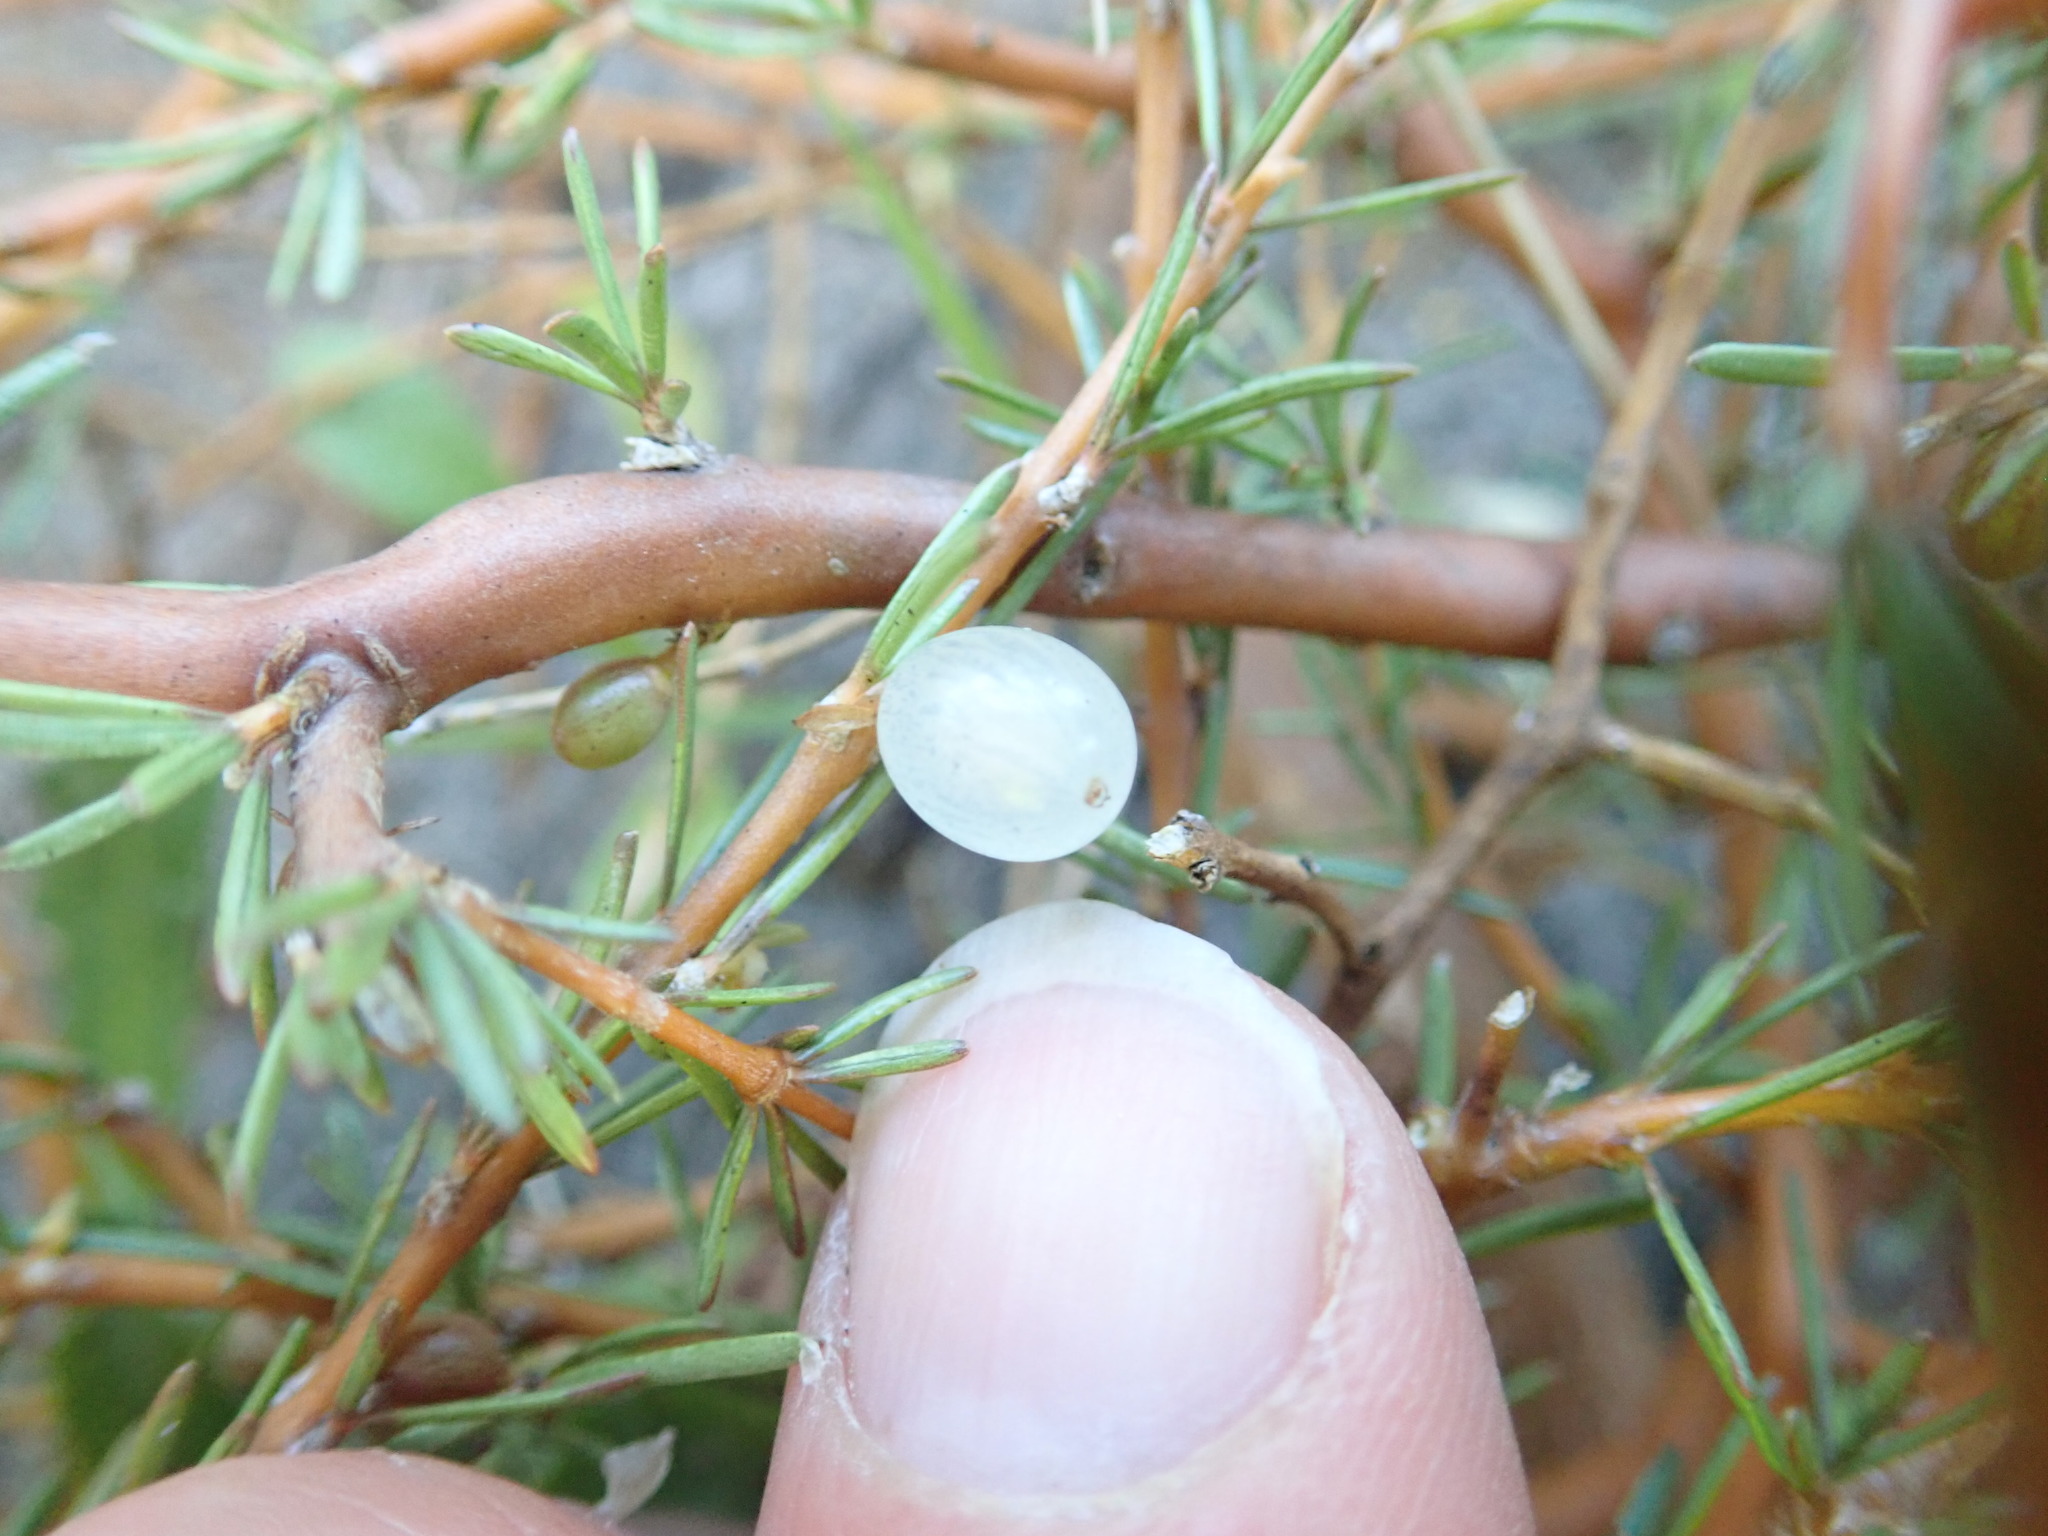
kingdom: Plantae
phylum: Tracheophyta
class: Magnoliopsida
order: Gentianales
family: Rubiaceae
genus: Coprosma
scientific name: Coprosma acerosa
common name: Sand coprosma
